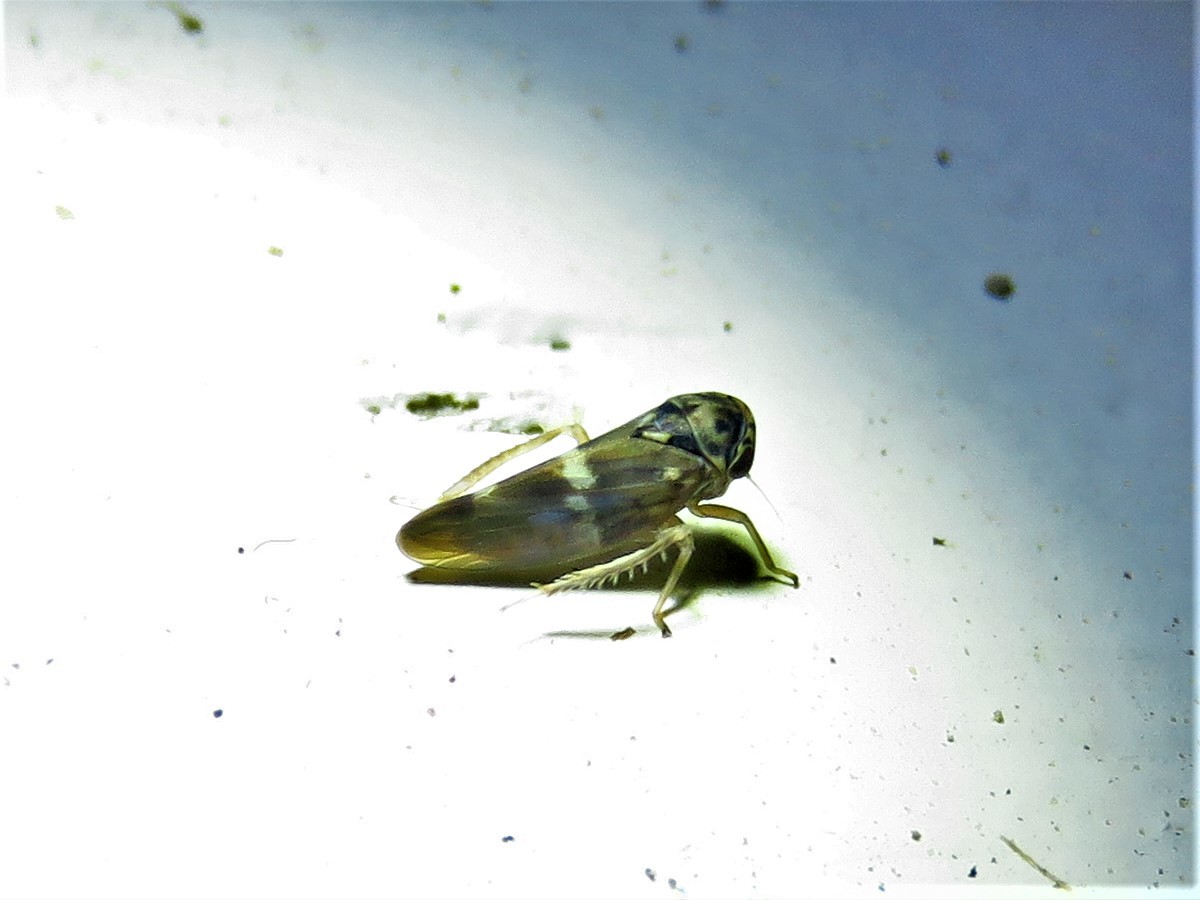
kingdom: Animalia
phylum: Arthropoda
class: Insecta
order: Hemiptera
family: Cicadellidae
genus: Agalliopsis
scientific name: Agalliopsis cervina
